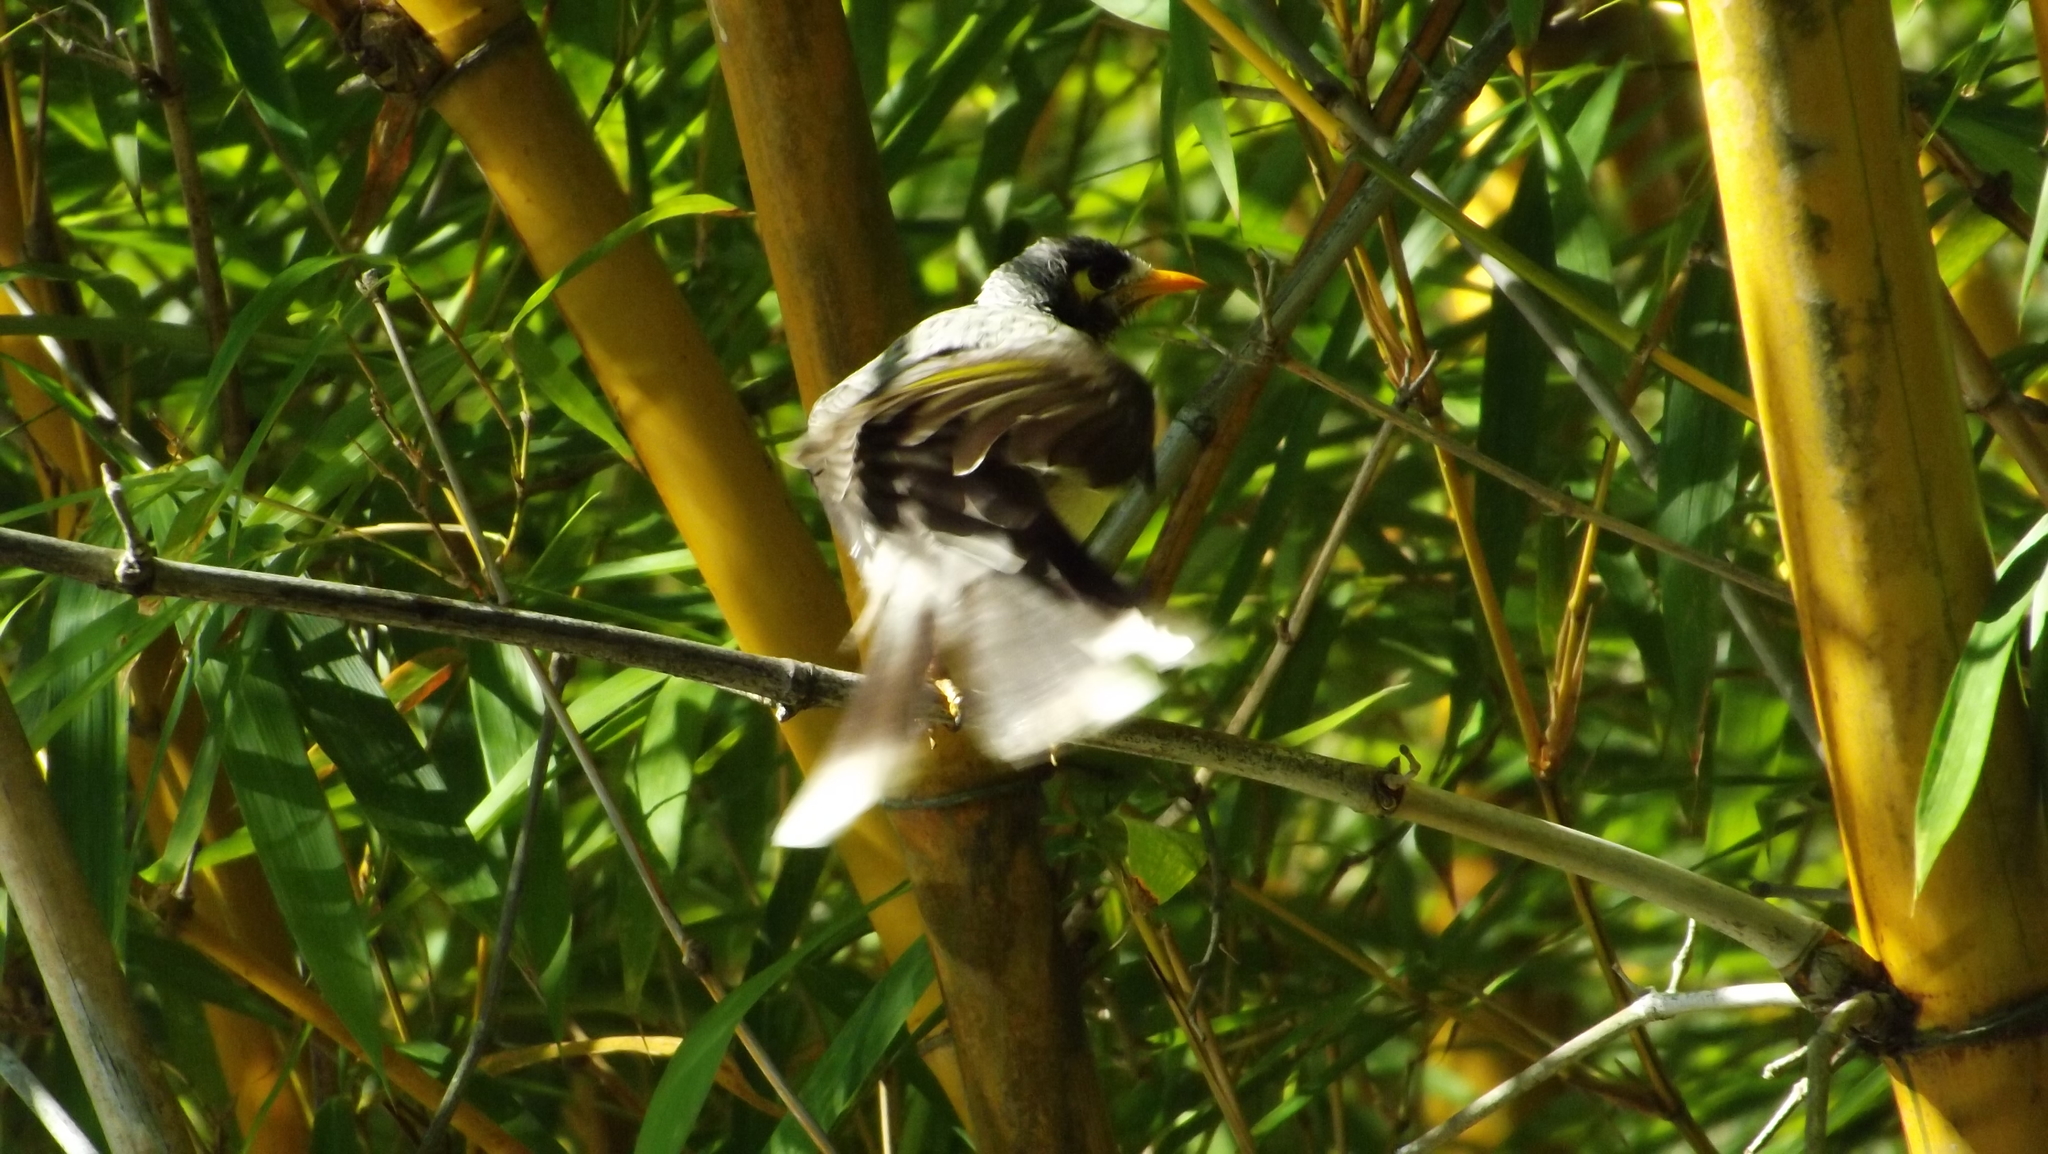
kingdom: Animalia
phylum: Chordata
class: Aves
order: Passeriformes
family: Meliphagidae
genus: Manorina
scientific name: Manorina melanocephala
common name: Noisy miner
